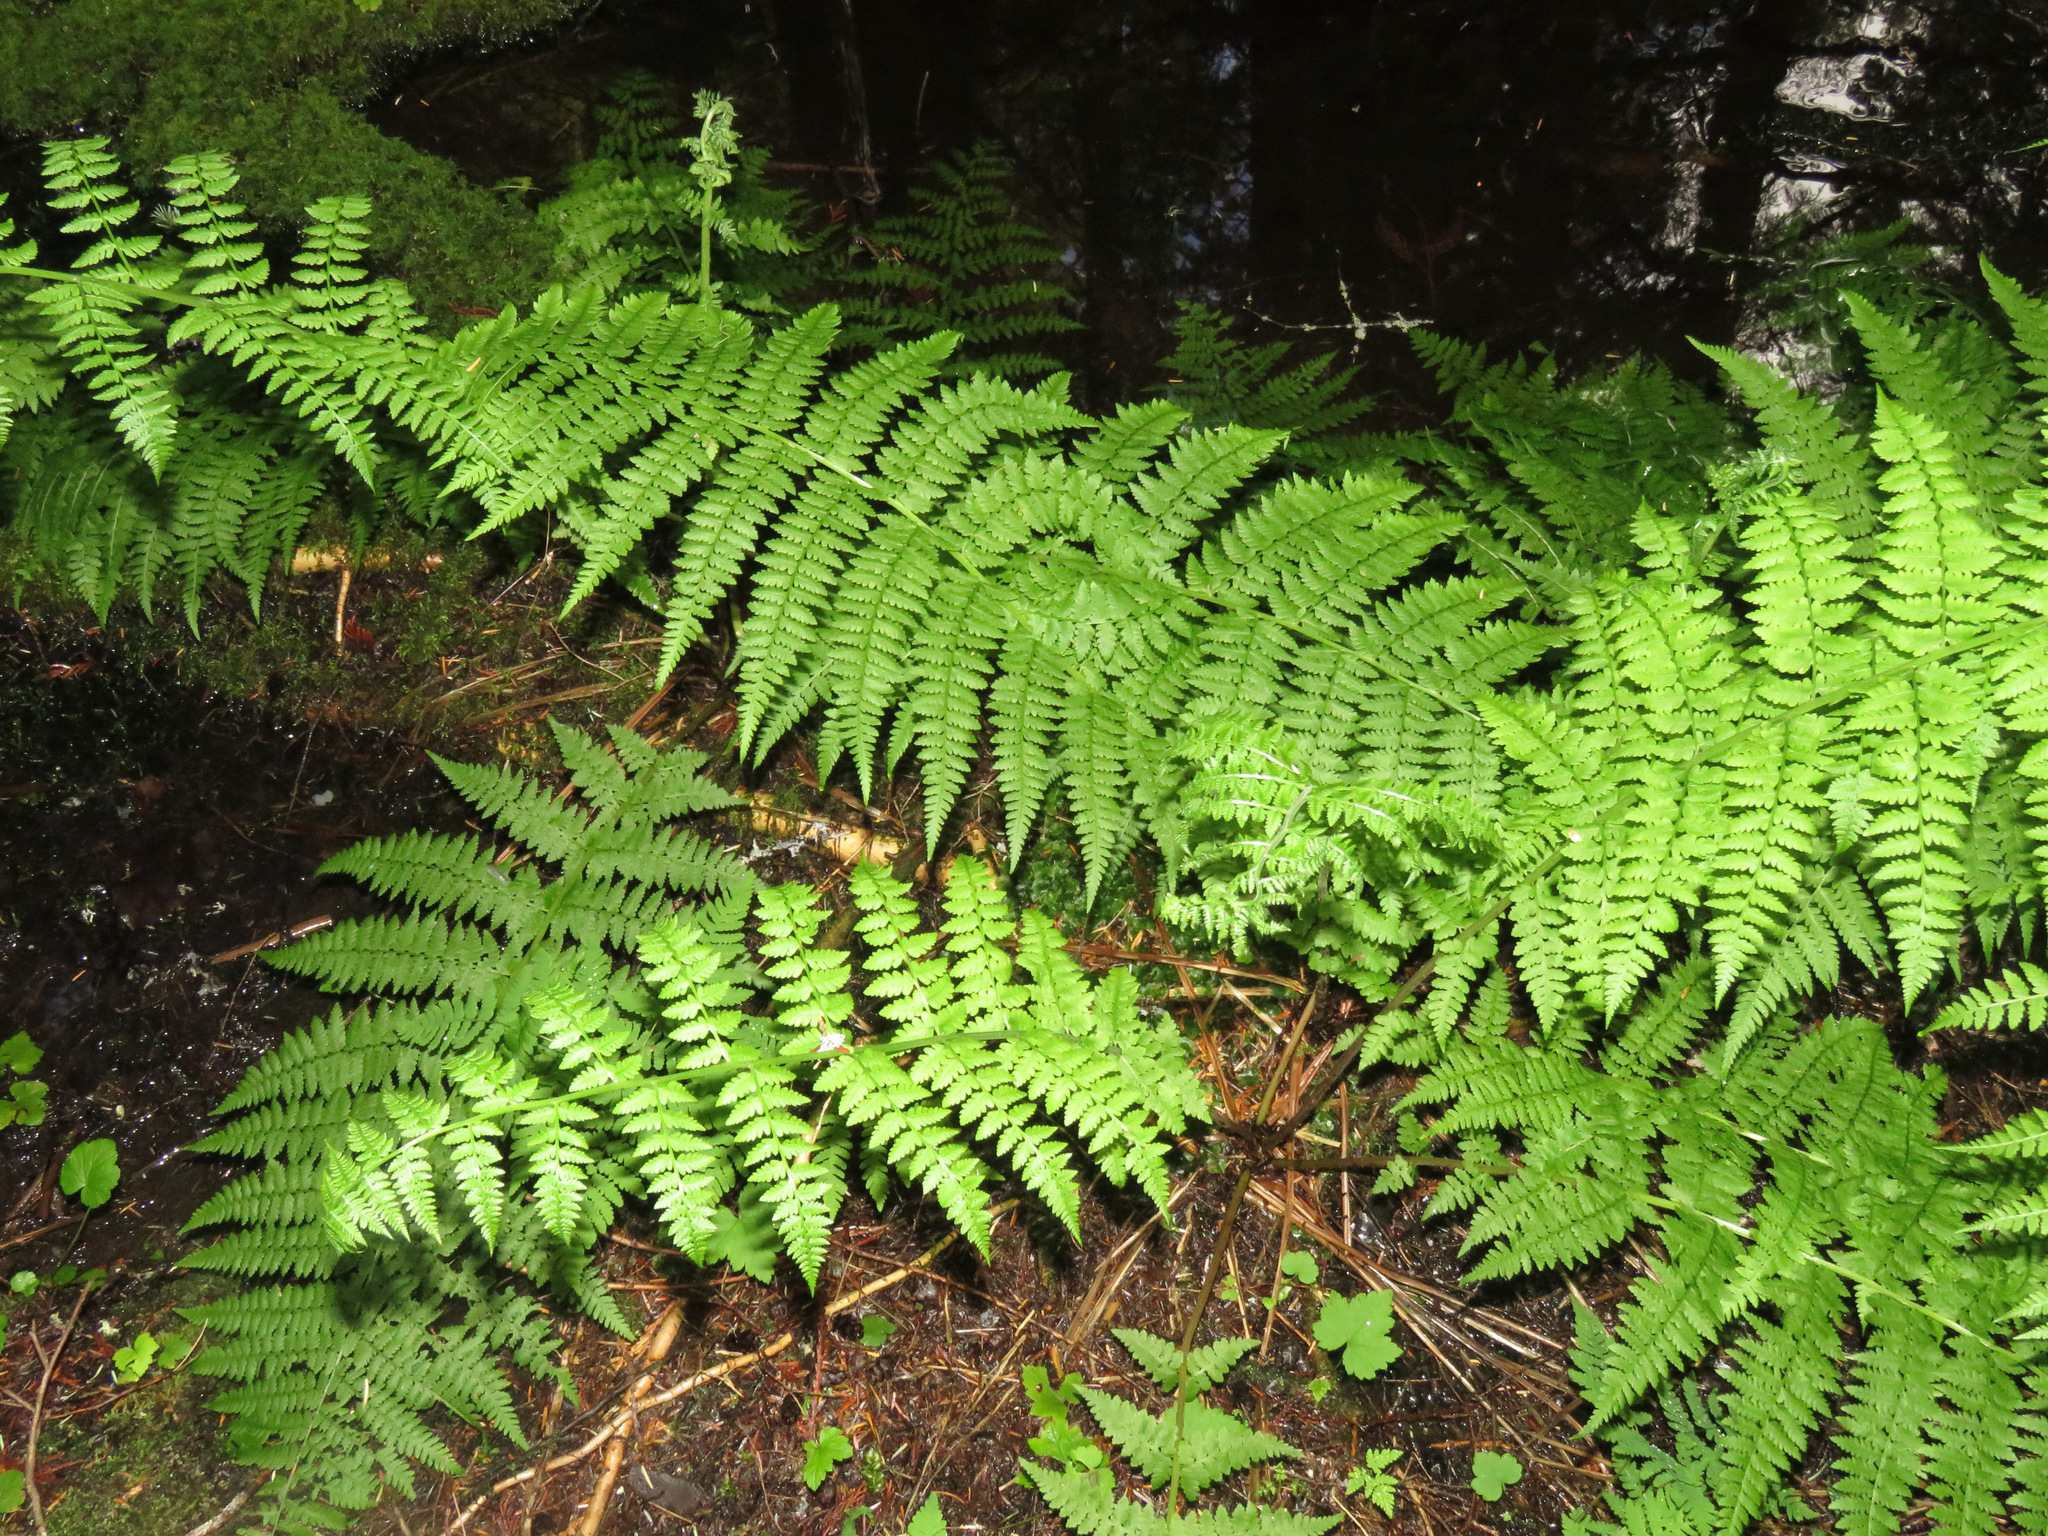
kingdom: Plantae
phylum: Tracheophyta
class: Polypodiopsida
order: Polypodiales
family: Athyriaceae
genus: Athyrium
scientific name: Athyrium filix-femina
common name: Lady fern
